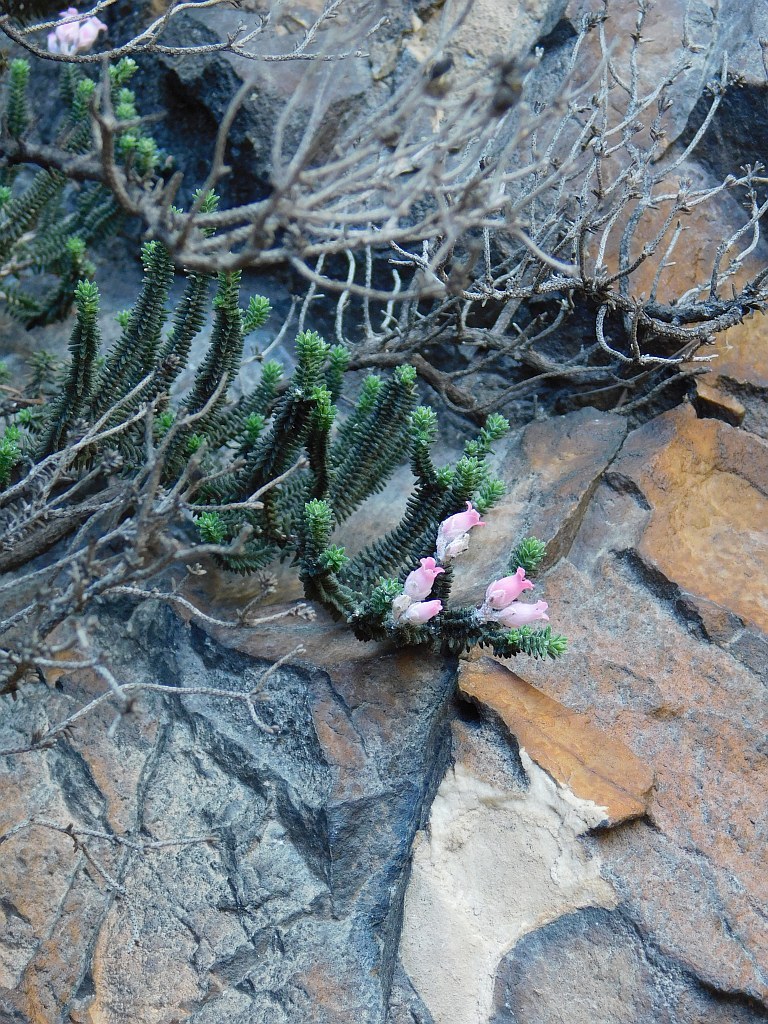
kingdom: Plantae
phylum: Tracheophyta
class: Magnoliopsida
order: Ericales
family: Ericaceae
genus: Erica
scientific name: Erica modesta
